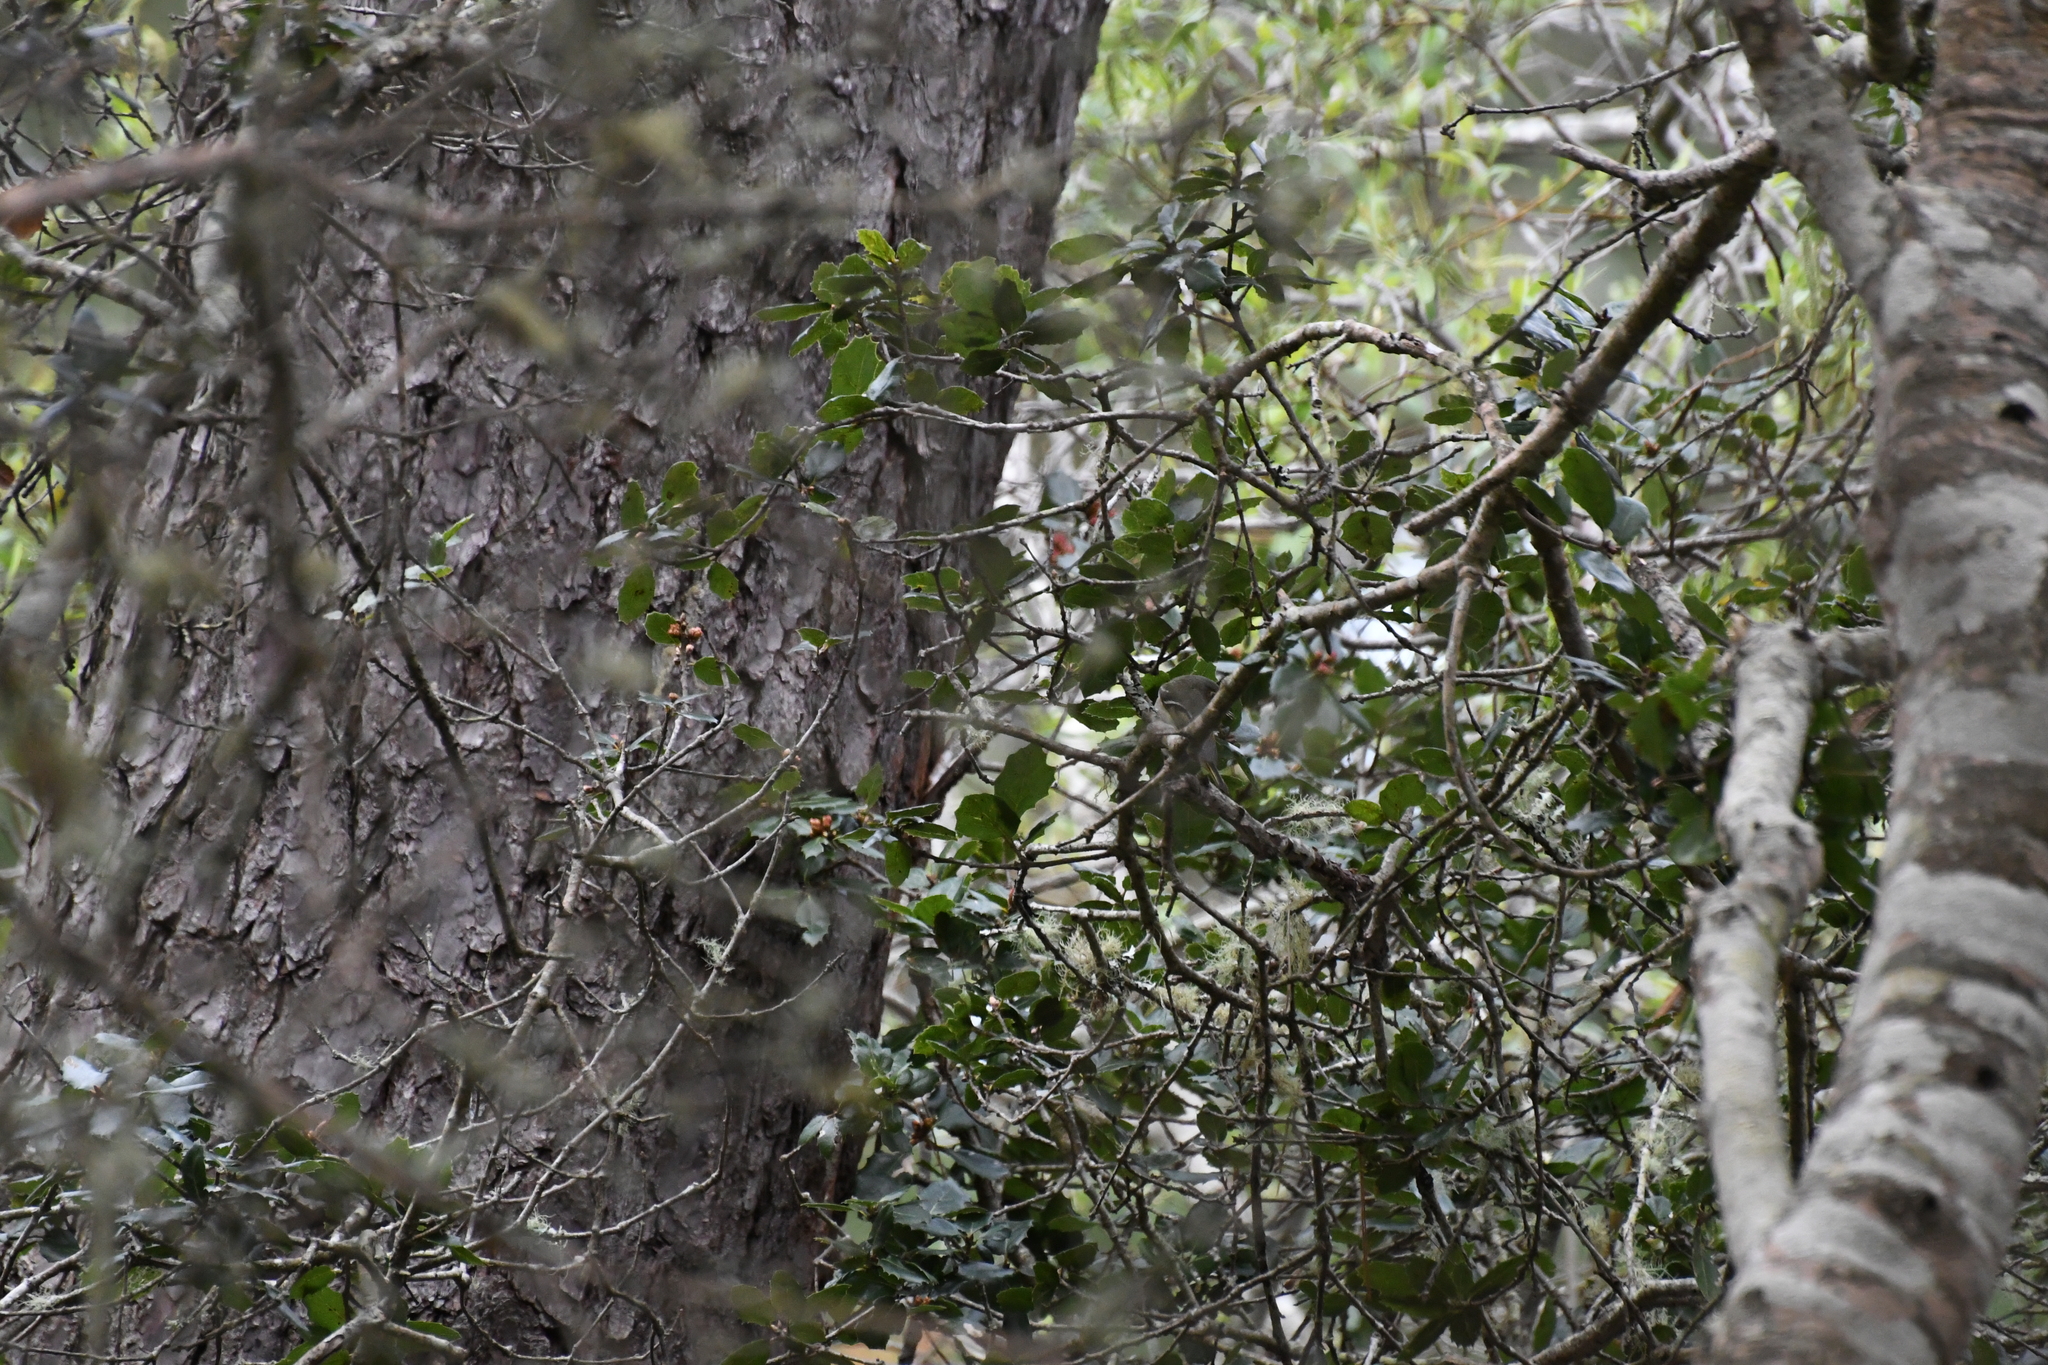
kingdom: Animalia
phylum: Chordata
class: Aves
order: Passeriformes
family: Regulidae
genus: Regulus
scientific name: Regulus calendula
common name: Ruby-crowned kinglet
